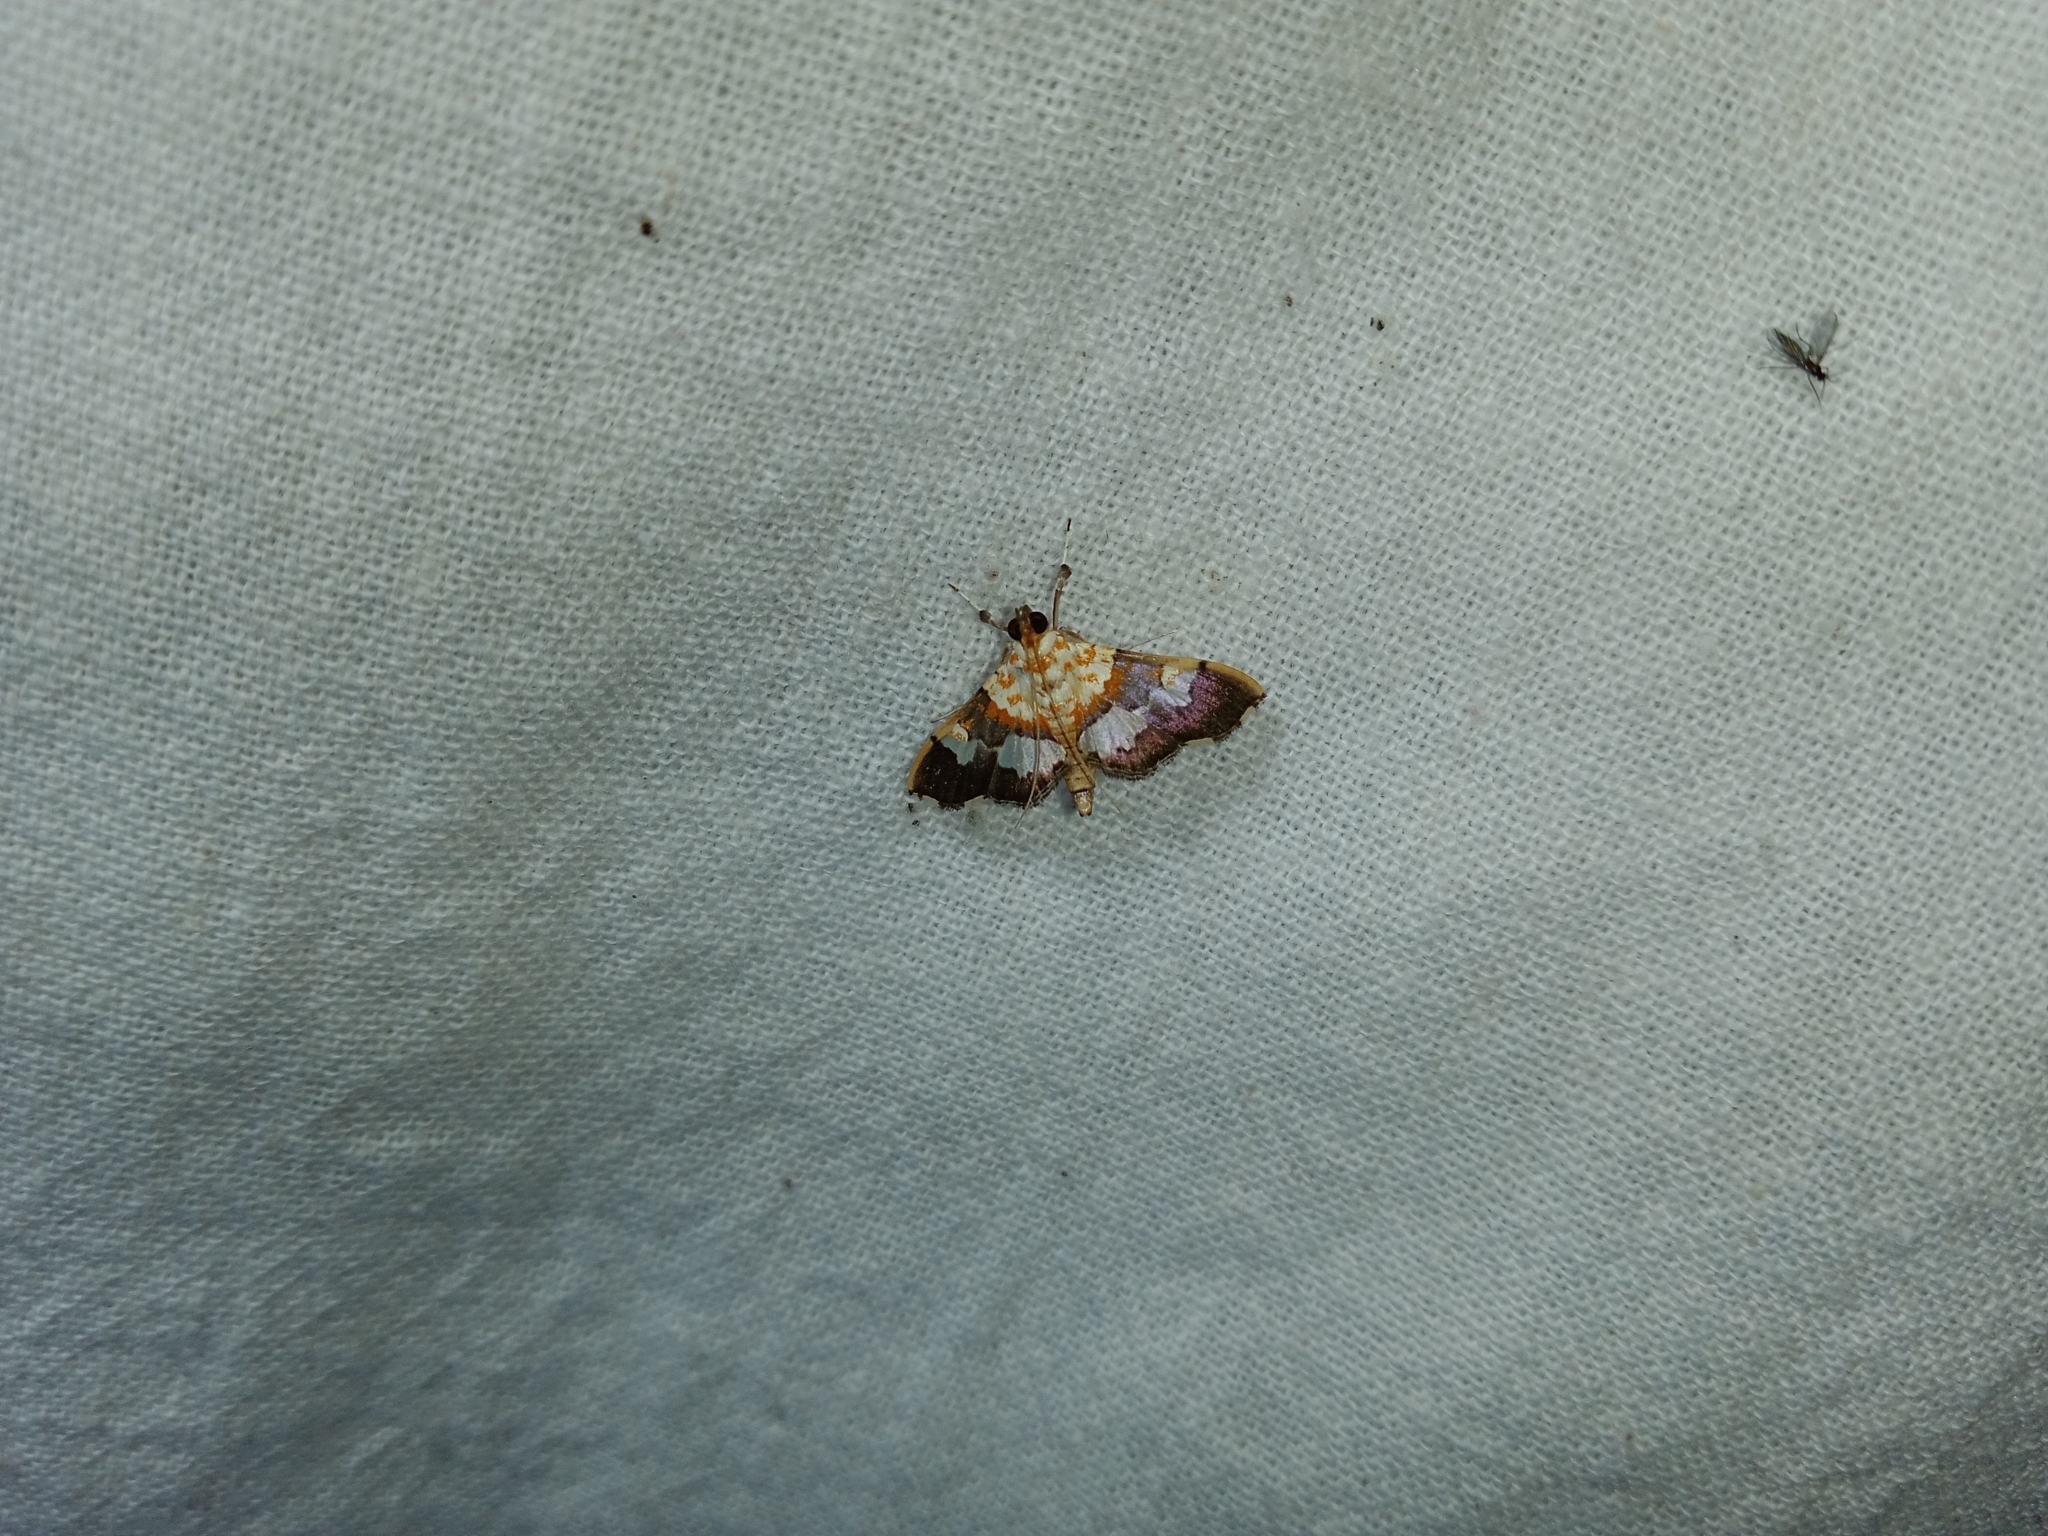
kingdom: Animalia
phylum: Arthropoda
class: Insecta
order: Lepidoptera
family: Crambidae
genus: Aetholix
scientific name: Aetholix flavibasalis
